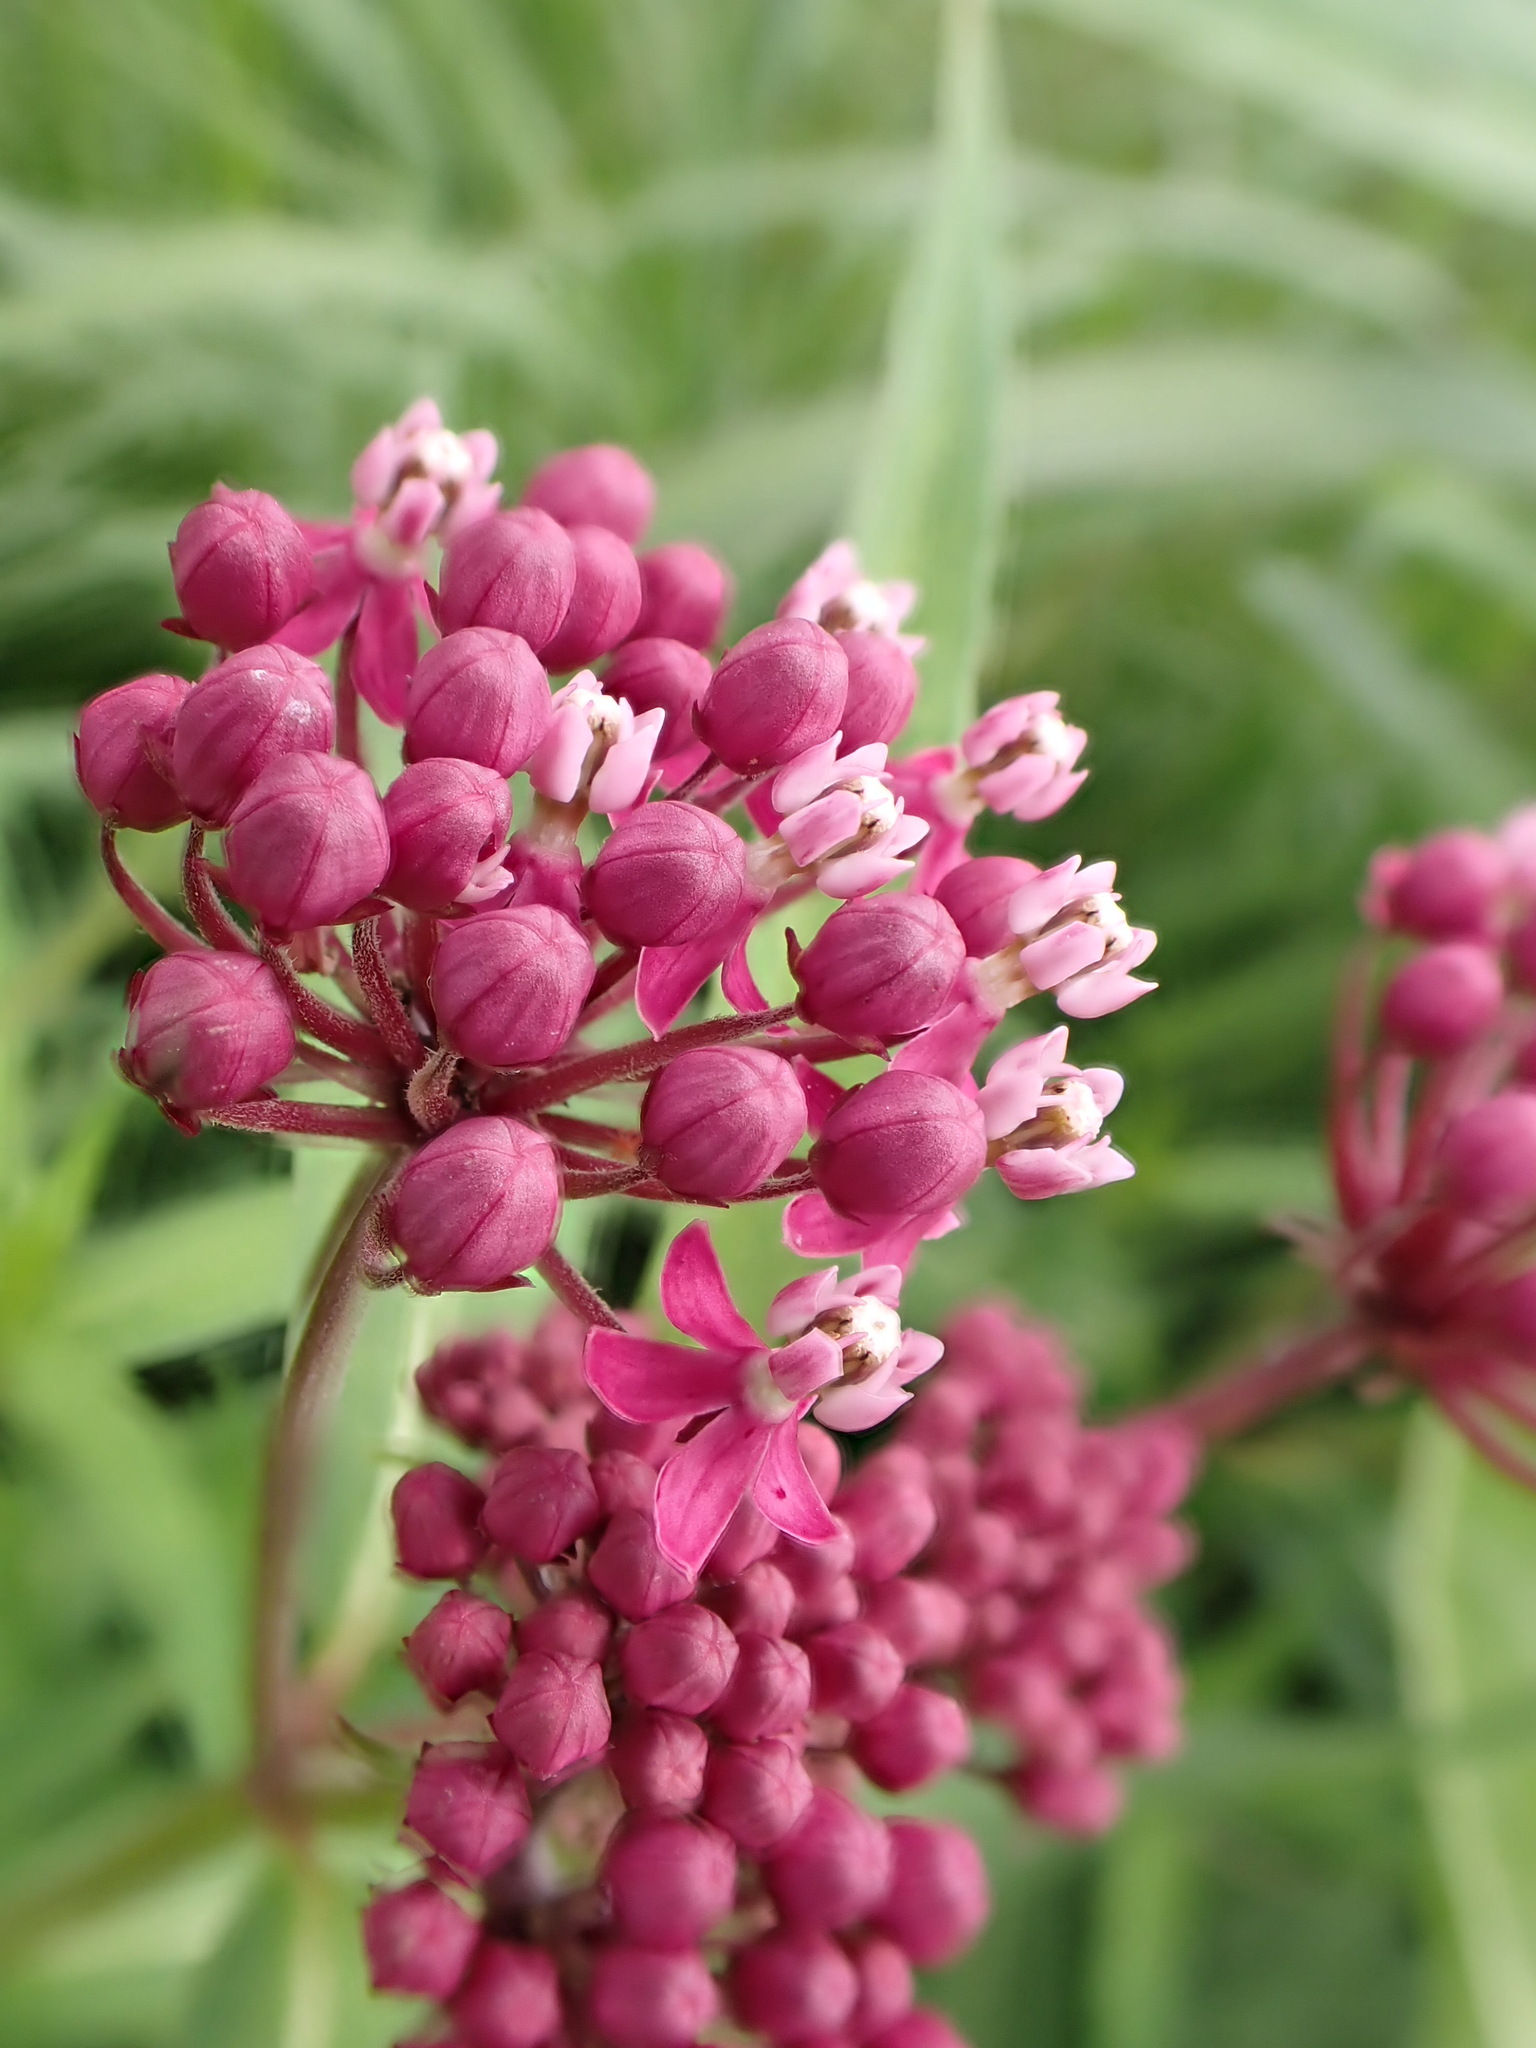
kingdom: Plantae
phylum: Tracheophyta
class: Magnoliopsida
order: Gentianales
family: Apocynaceae
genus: Asclepias
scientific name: Asclepias incarnata
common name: Swamp milkweed
